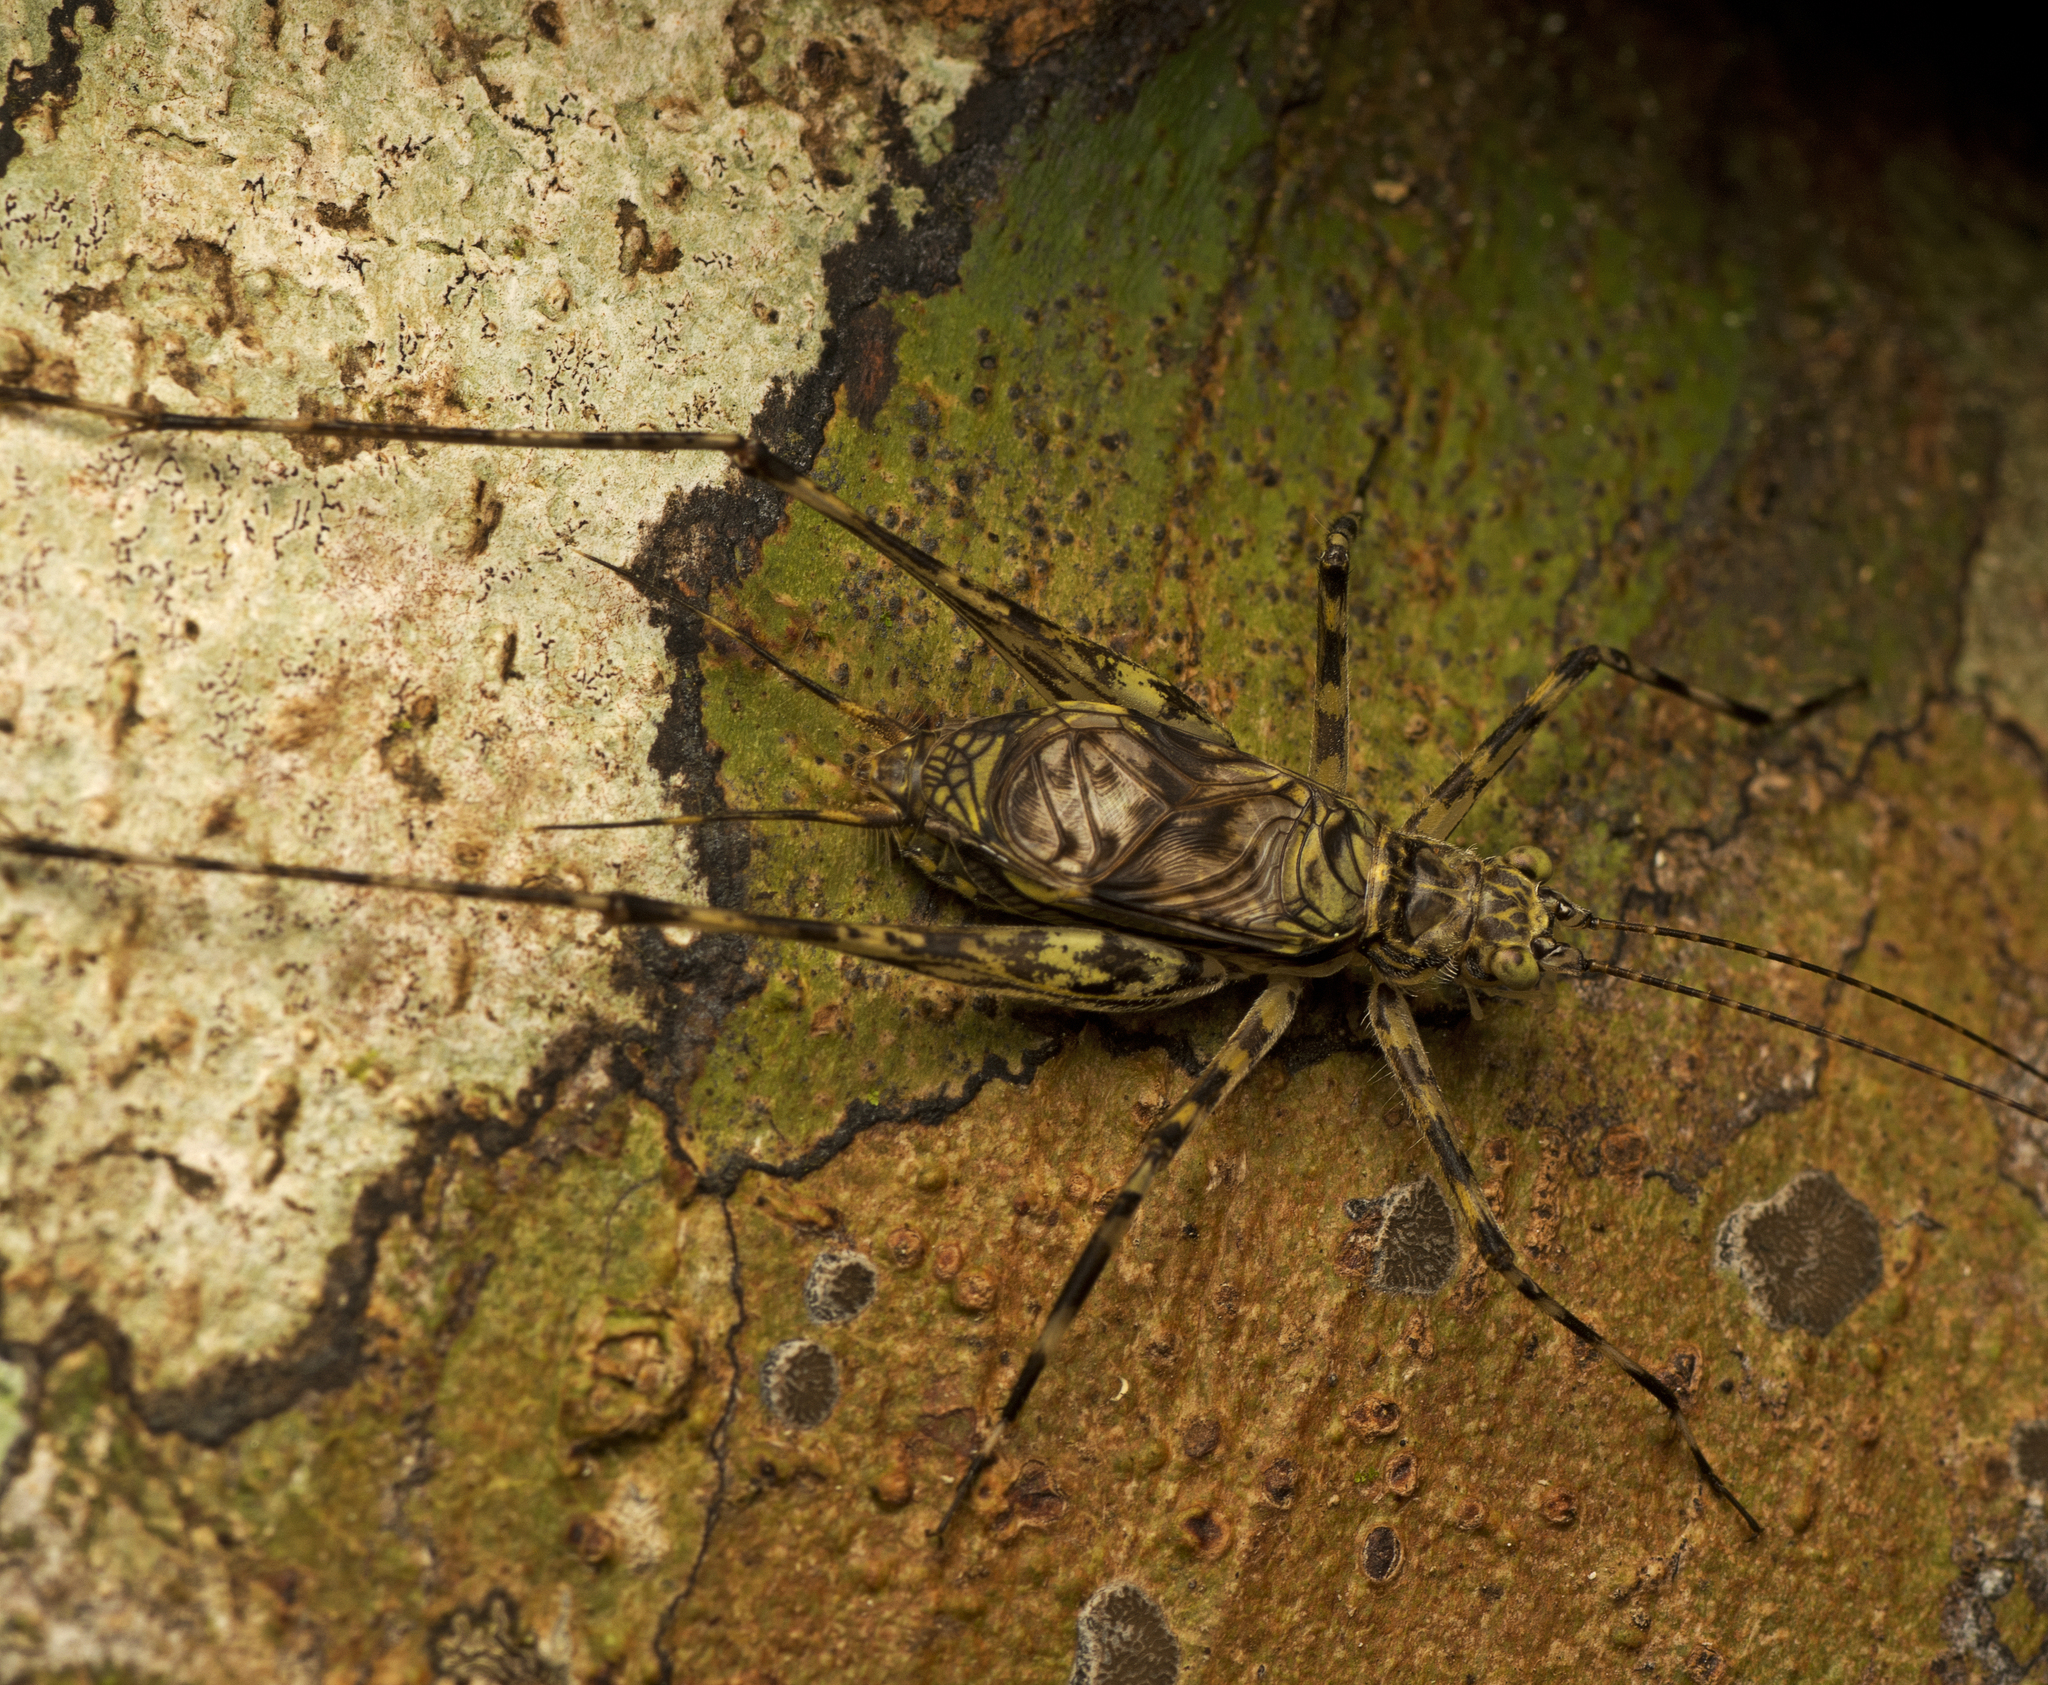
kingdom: Animalia
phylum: Arthropoda
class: Insecta
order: Orthoptera
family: Phalangopsidae
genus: Pseudotrigonidium
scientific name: Pseudotrigonidium australis
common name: Kuranda tree runner
